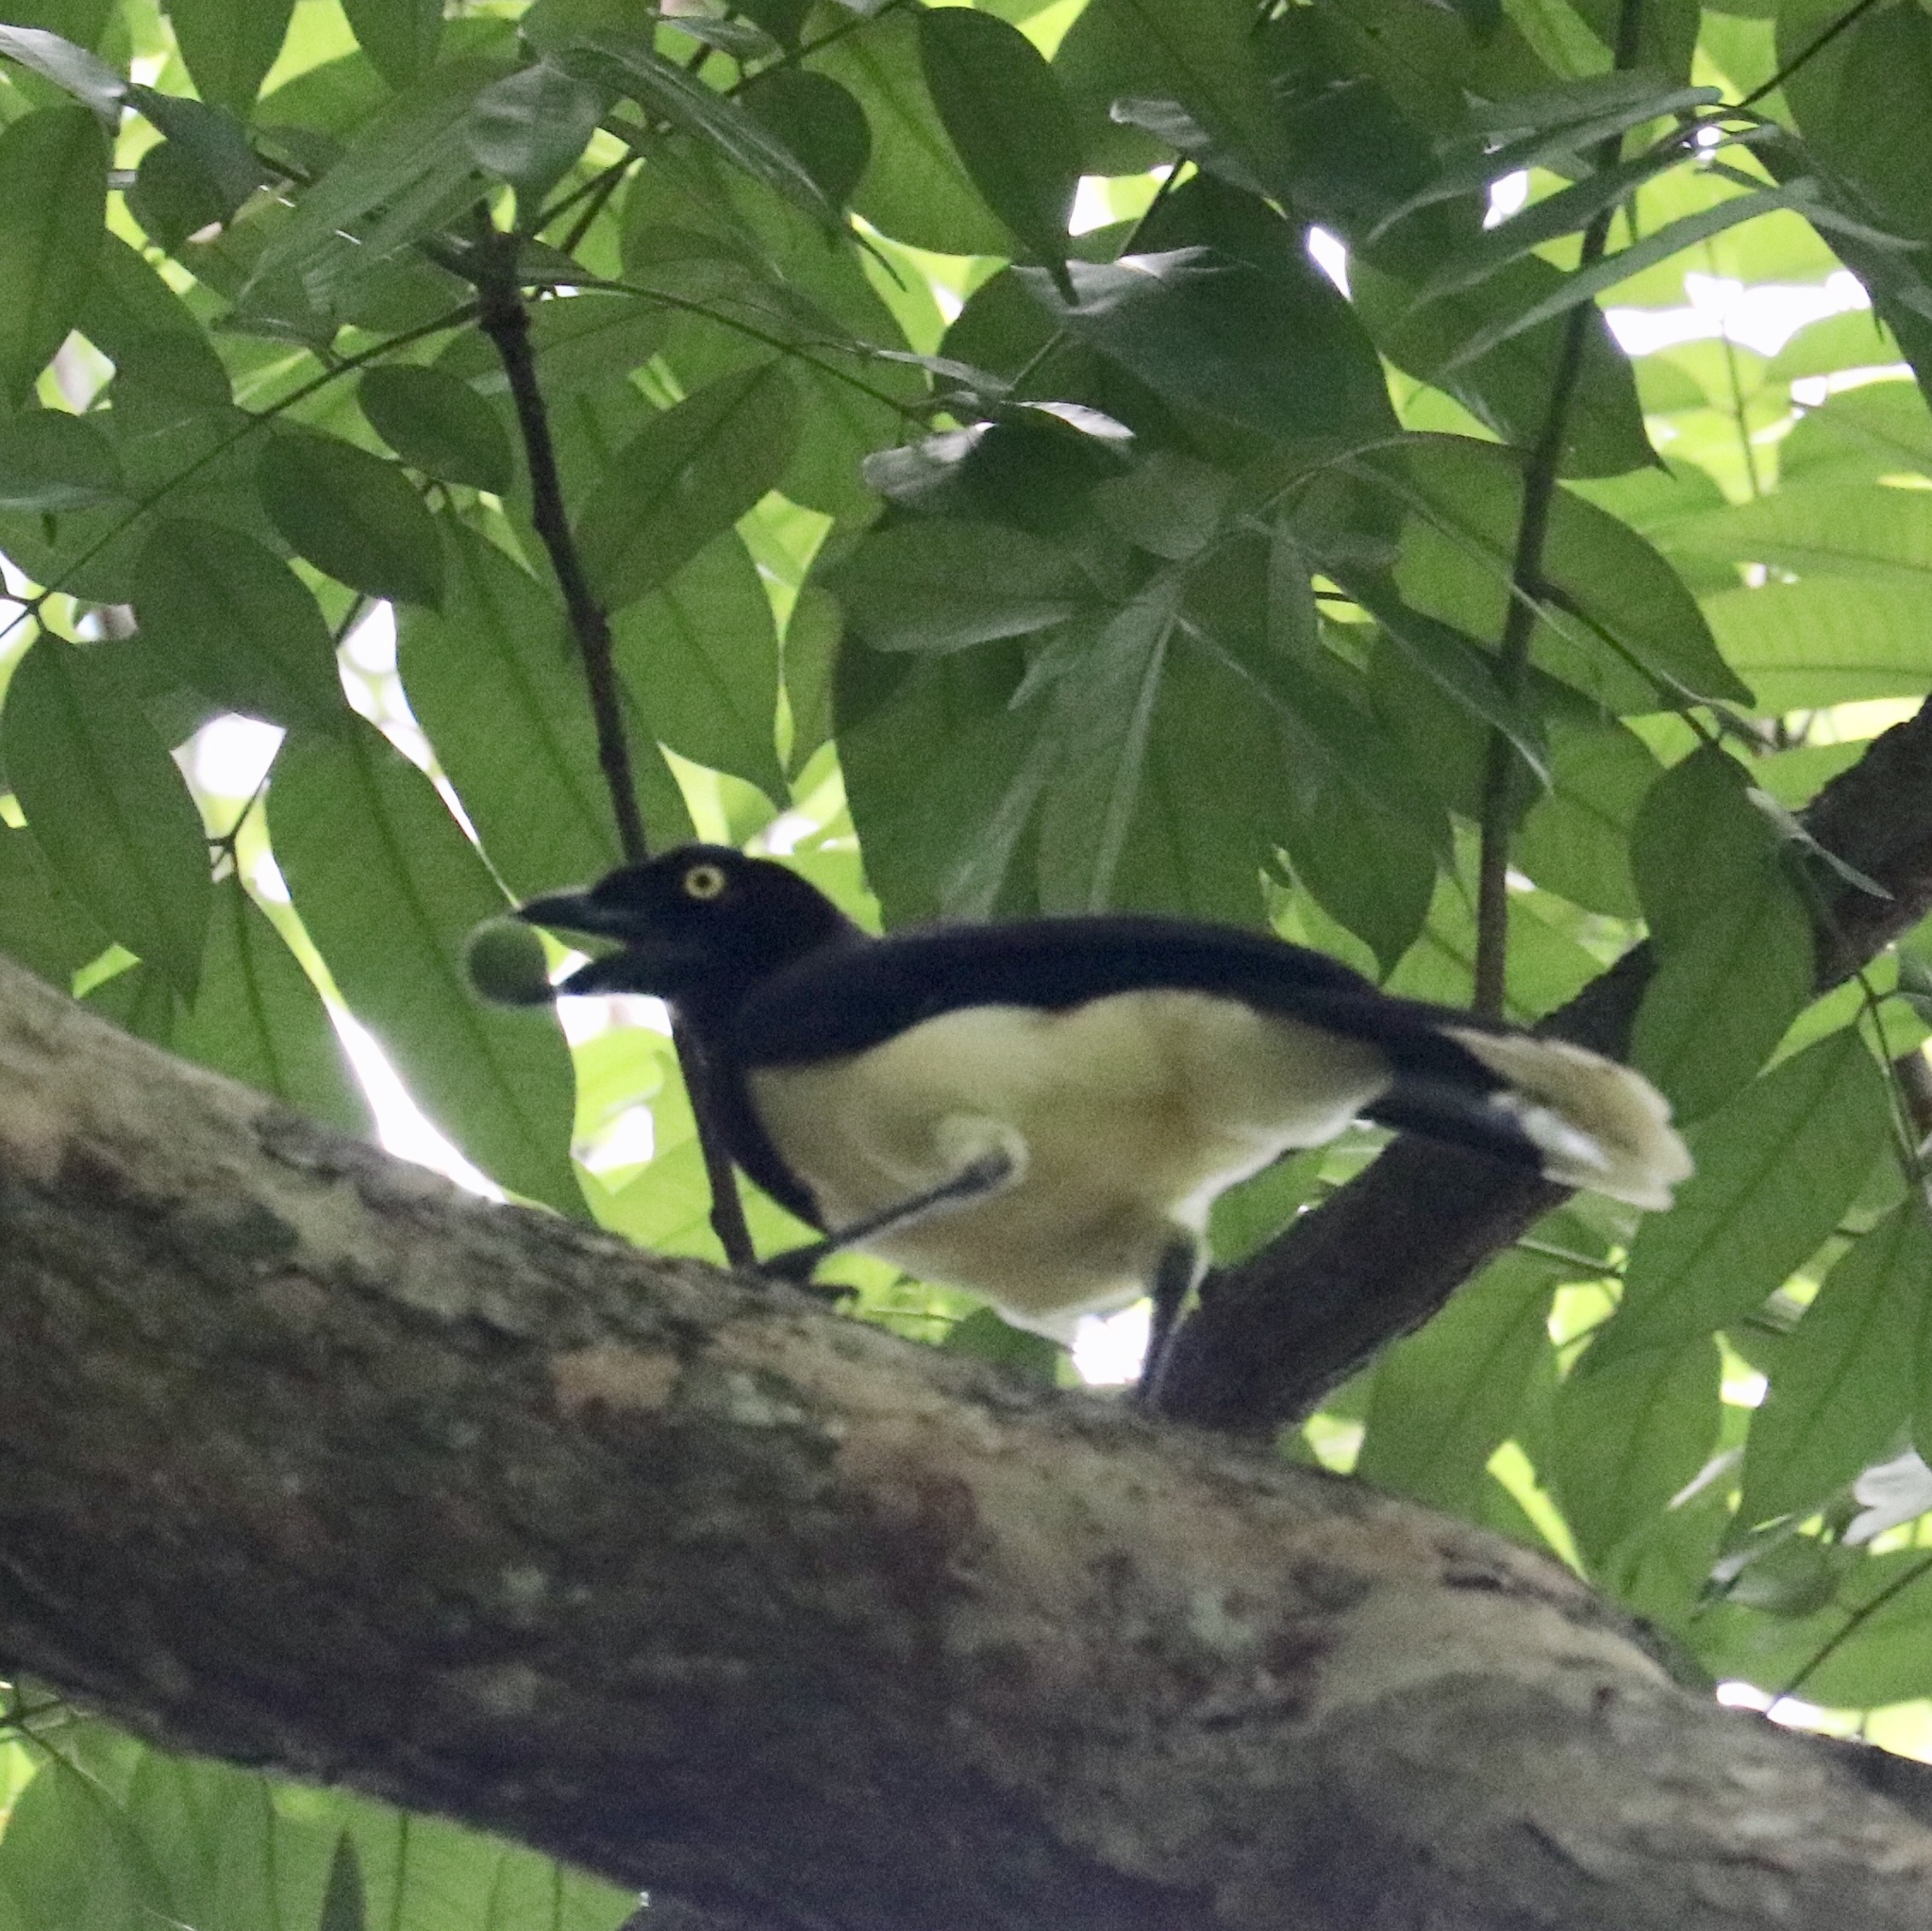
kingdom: Animalia
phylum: Chordata
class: Aves
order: Passeriformes
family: Corvidae
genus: Cyanocorax
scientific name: Cyanocorax affinis
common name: Black-chested jay
